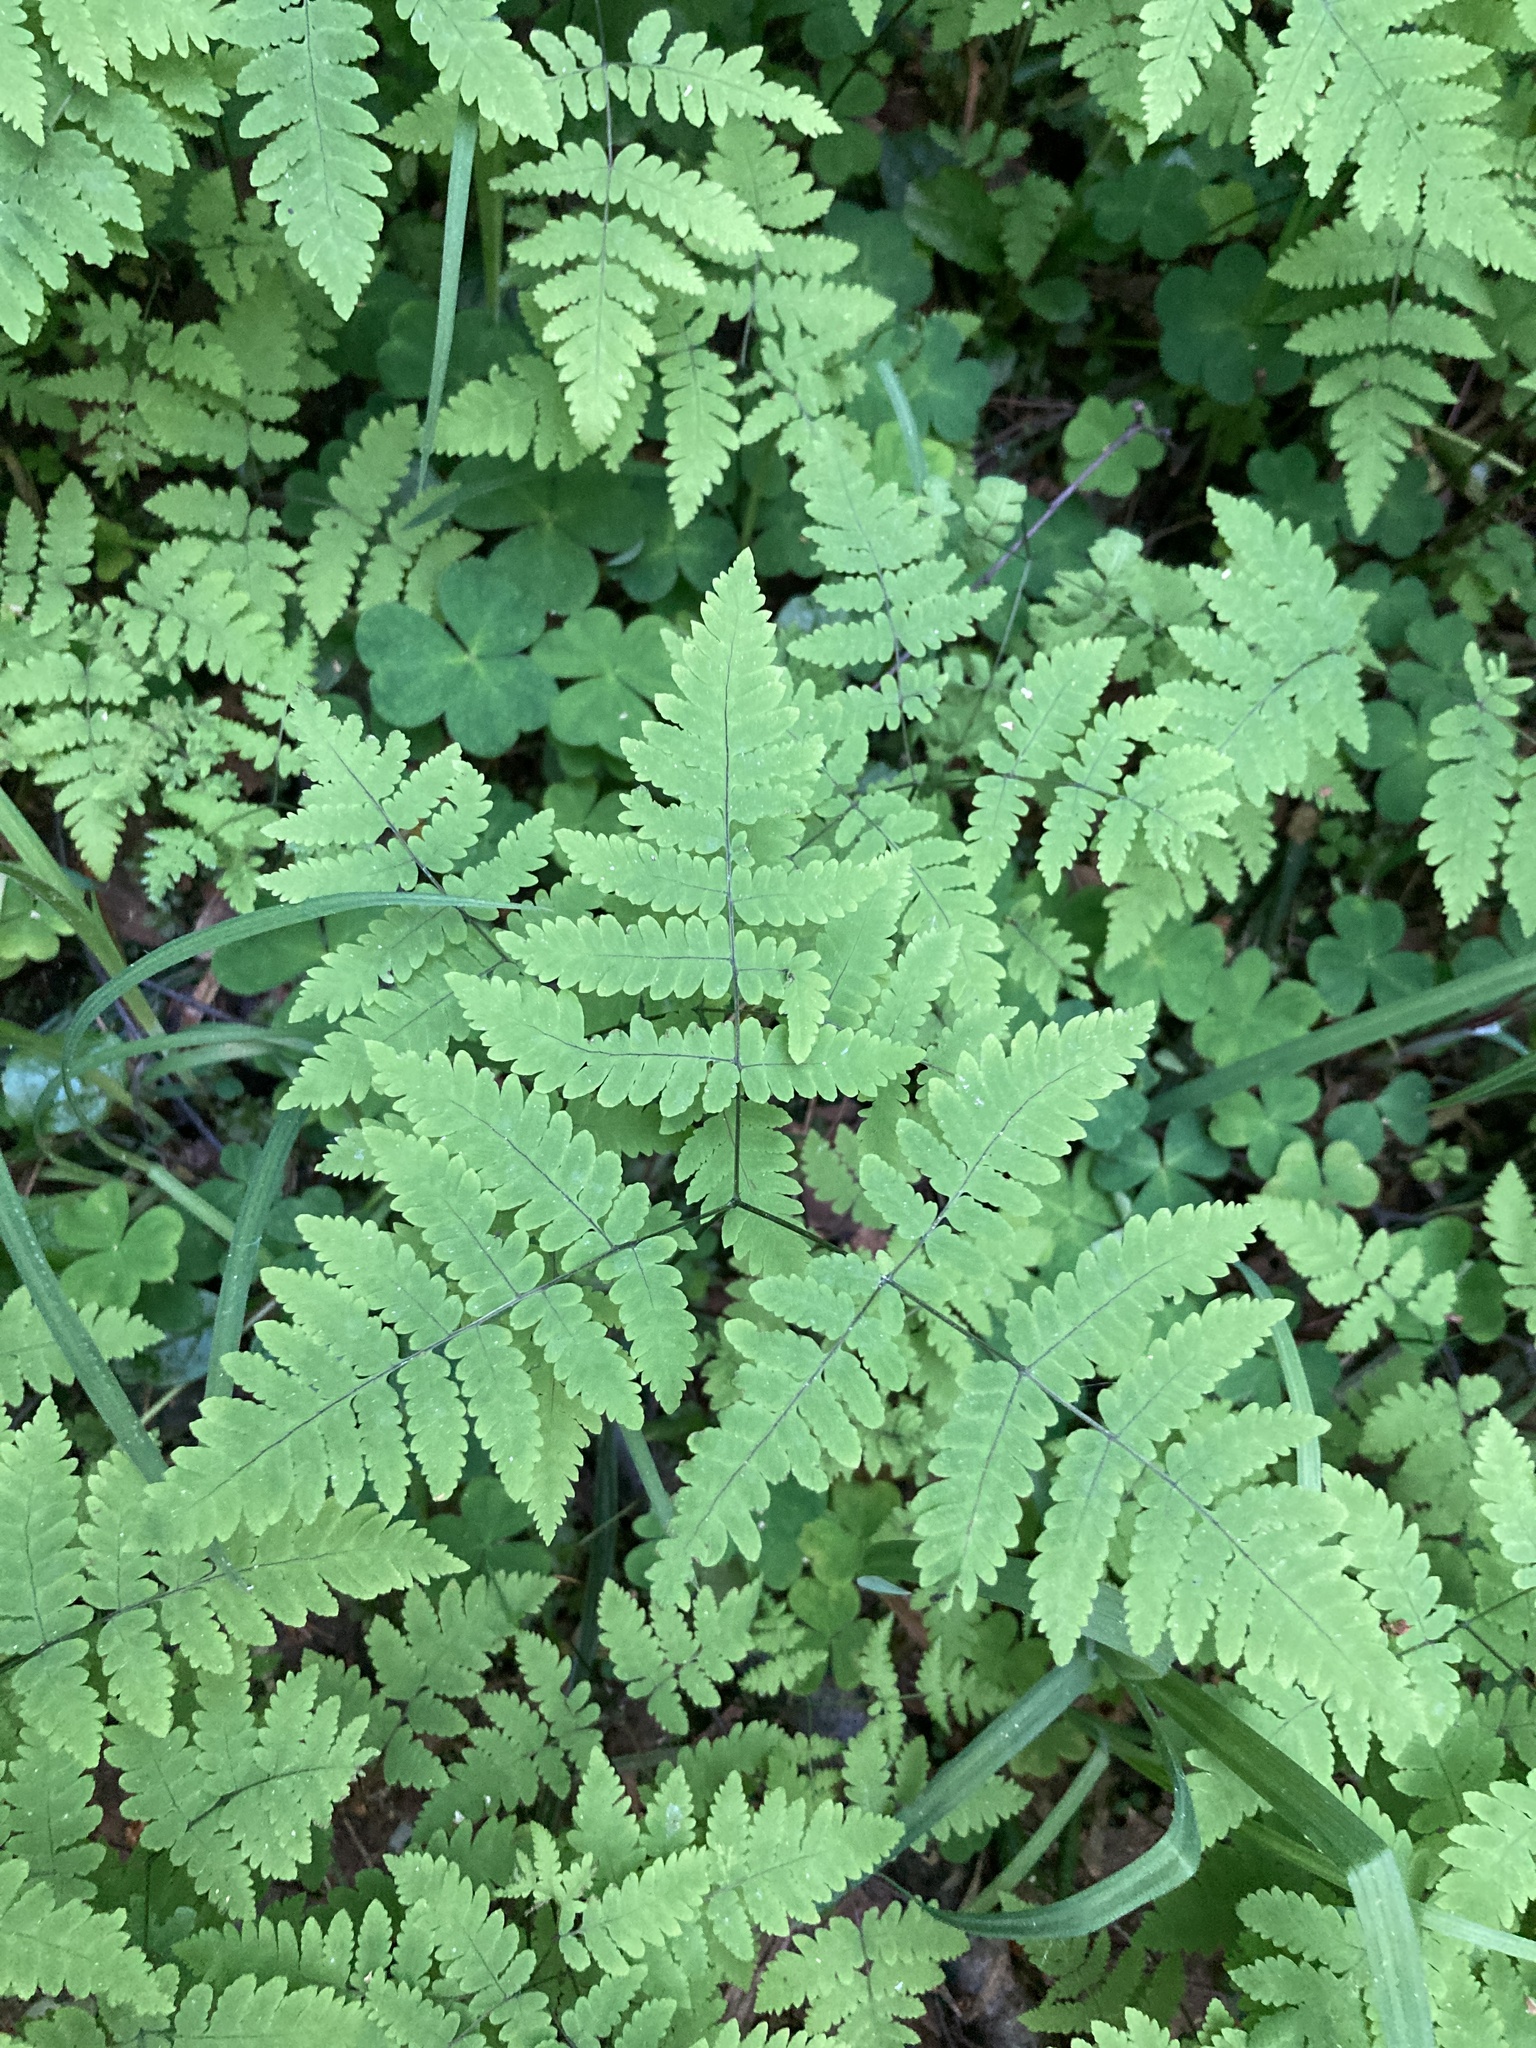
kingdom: Plantae
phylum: Tracheophyta
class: Polypodiopsida
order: Polypodiales
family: Cystopteridaceae
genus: Gymnocarpium
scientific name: Gymnocarpium dryopteris
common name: Oak fern
